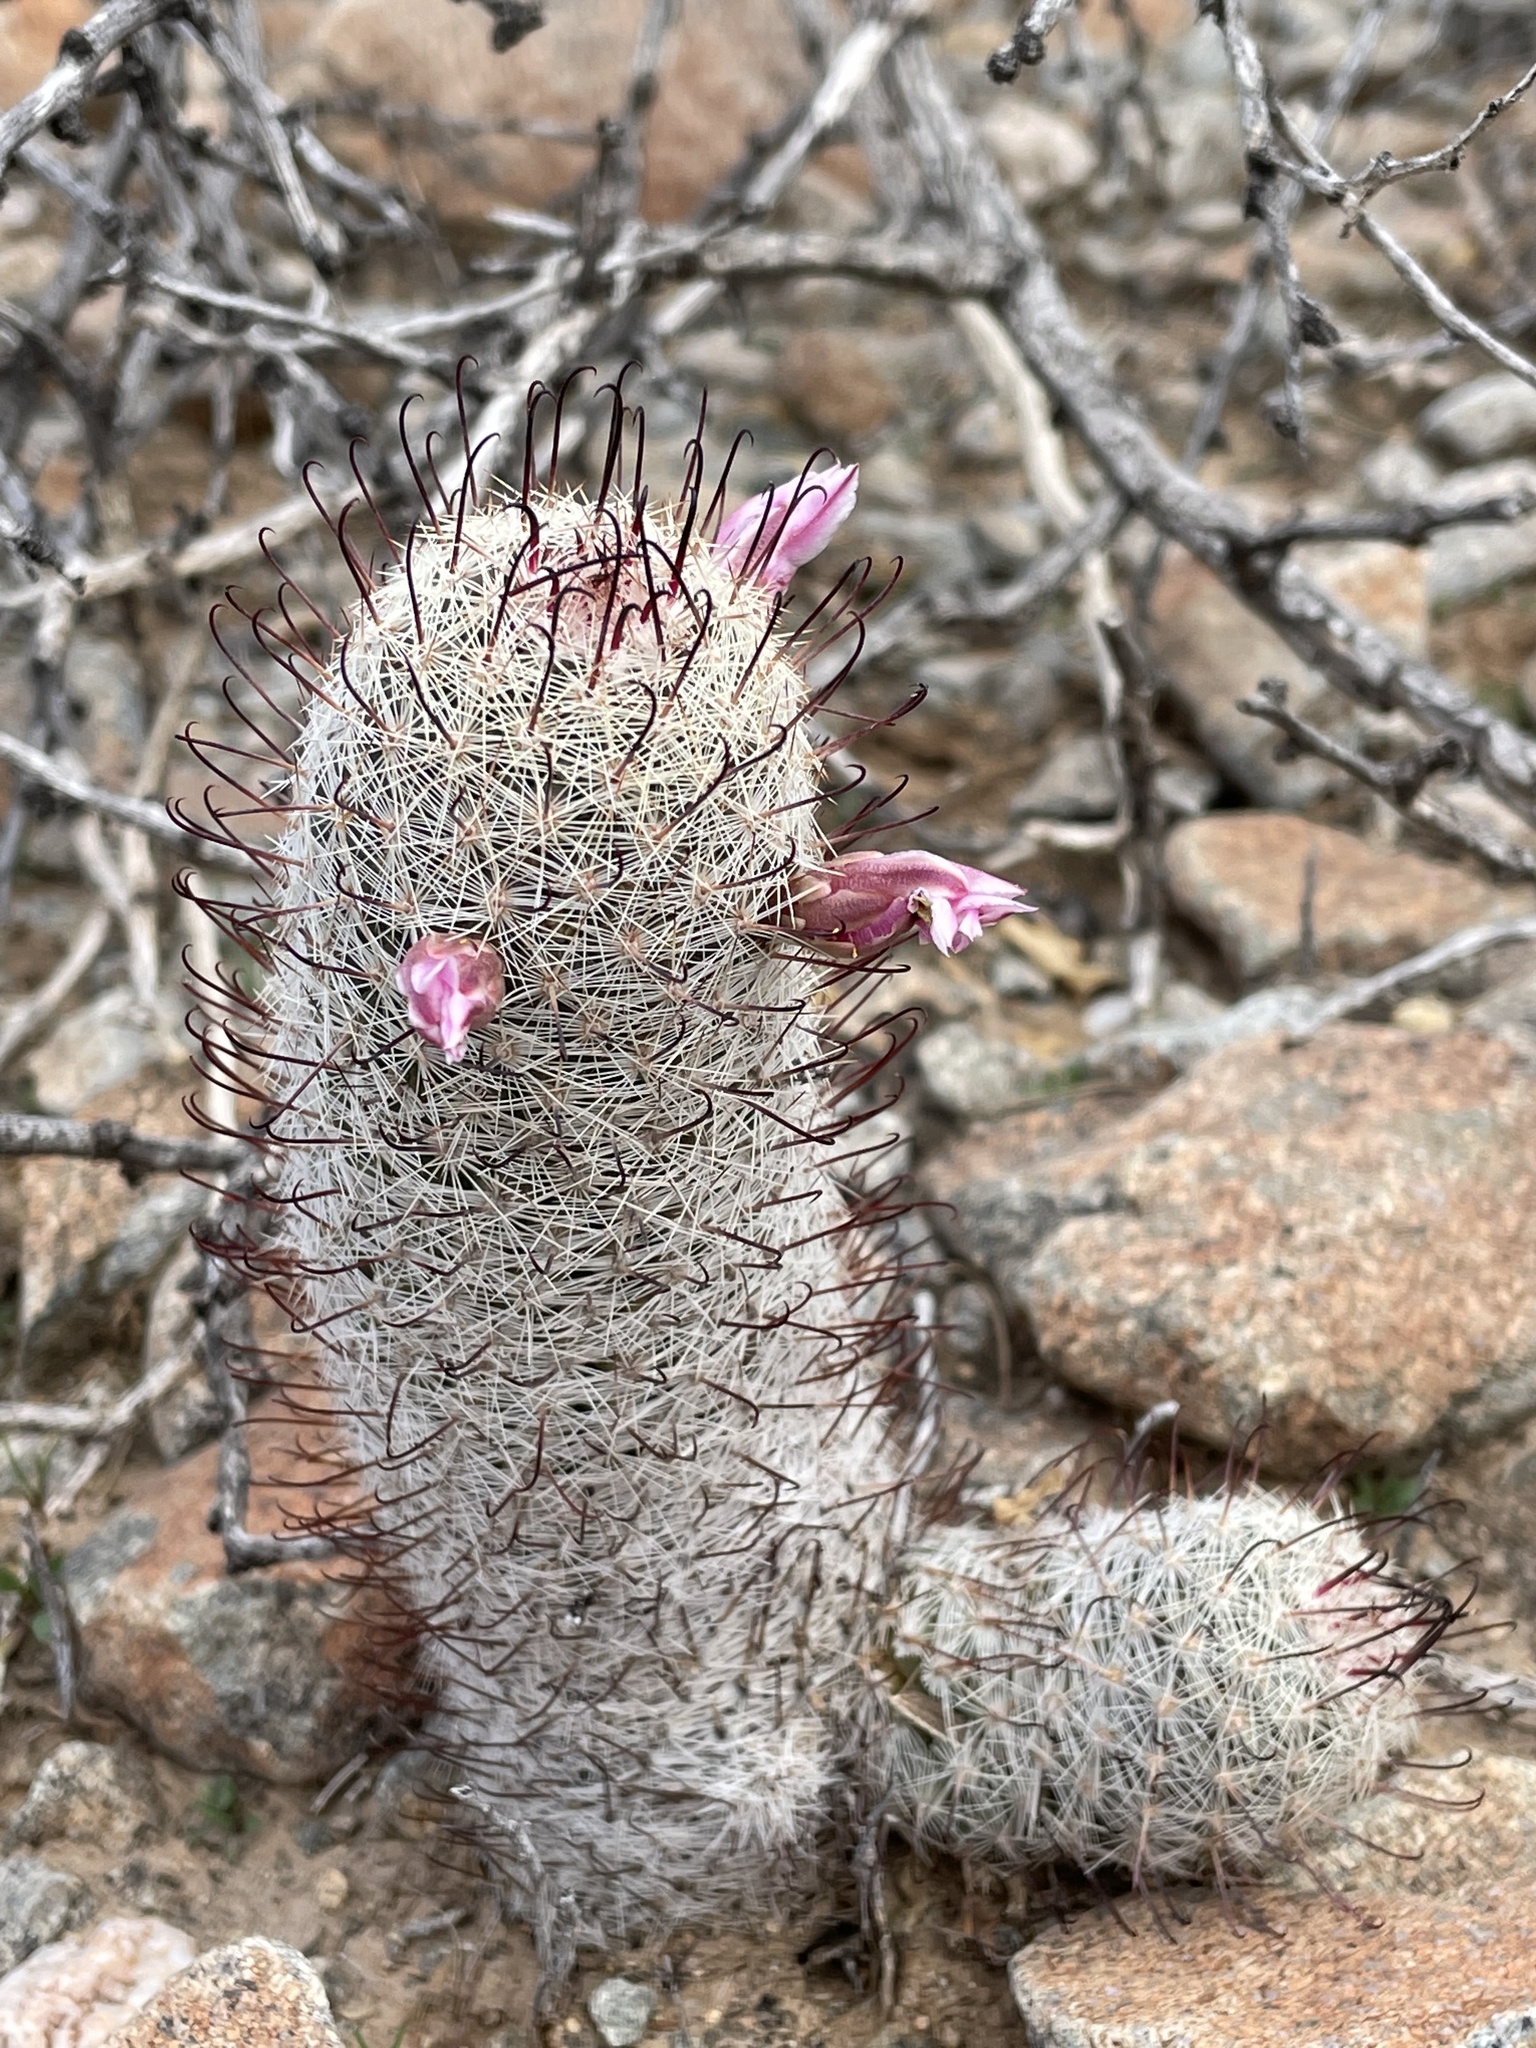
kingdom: Plantae
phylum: Tracheophyta
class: Magnoliopsida
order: Caryophyllales
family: Cactaceae
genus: Cochemiea
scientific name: Cochemiea grahamii
